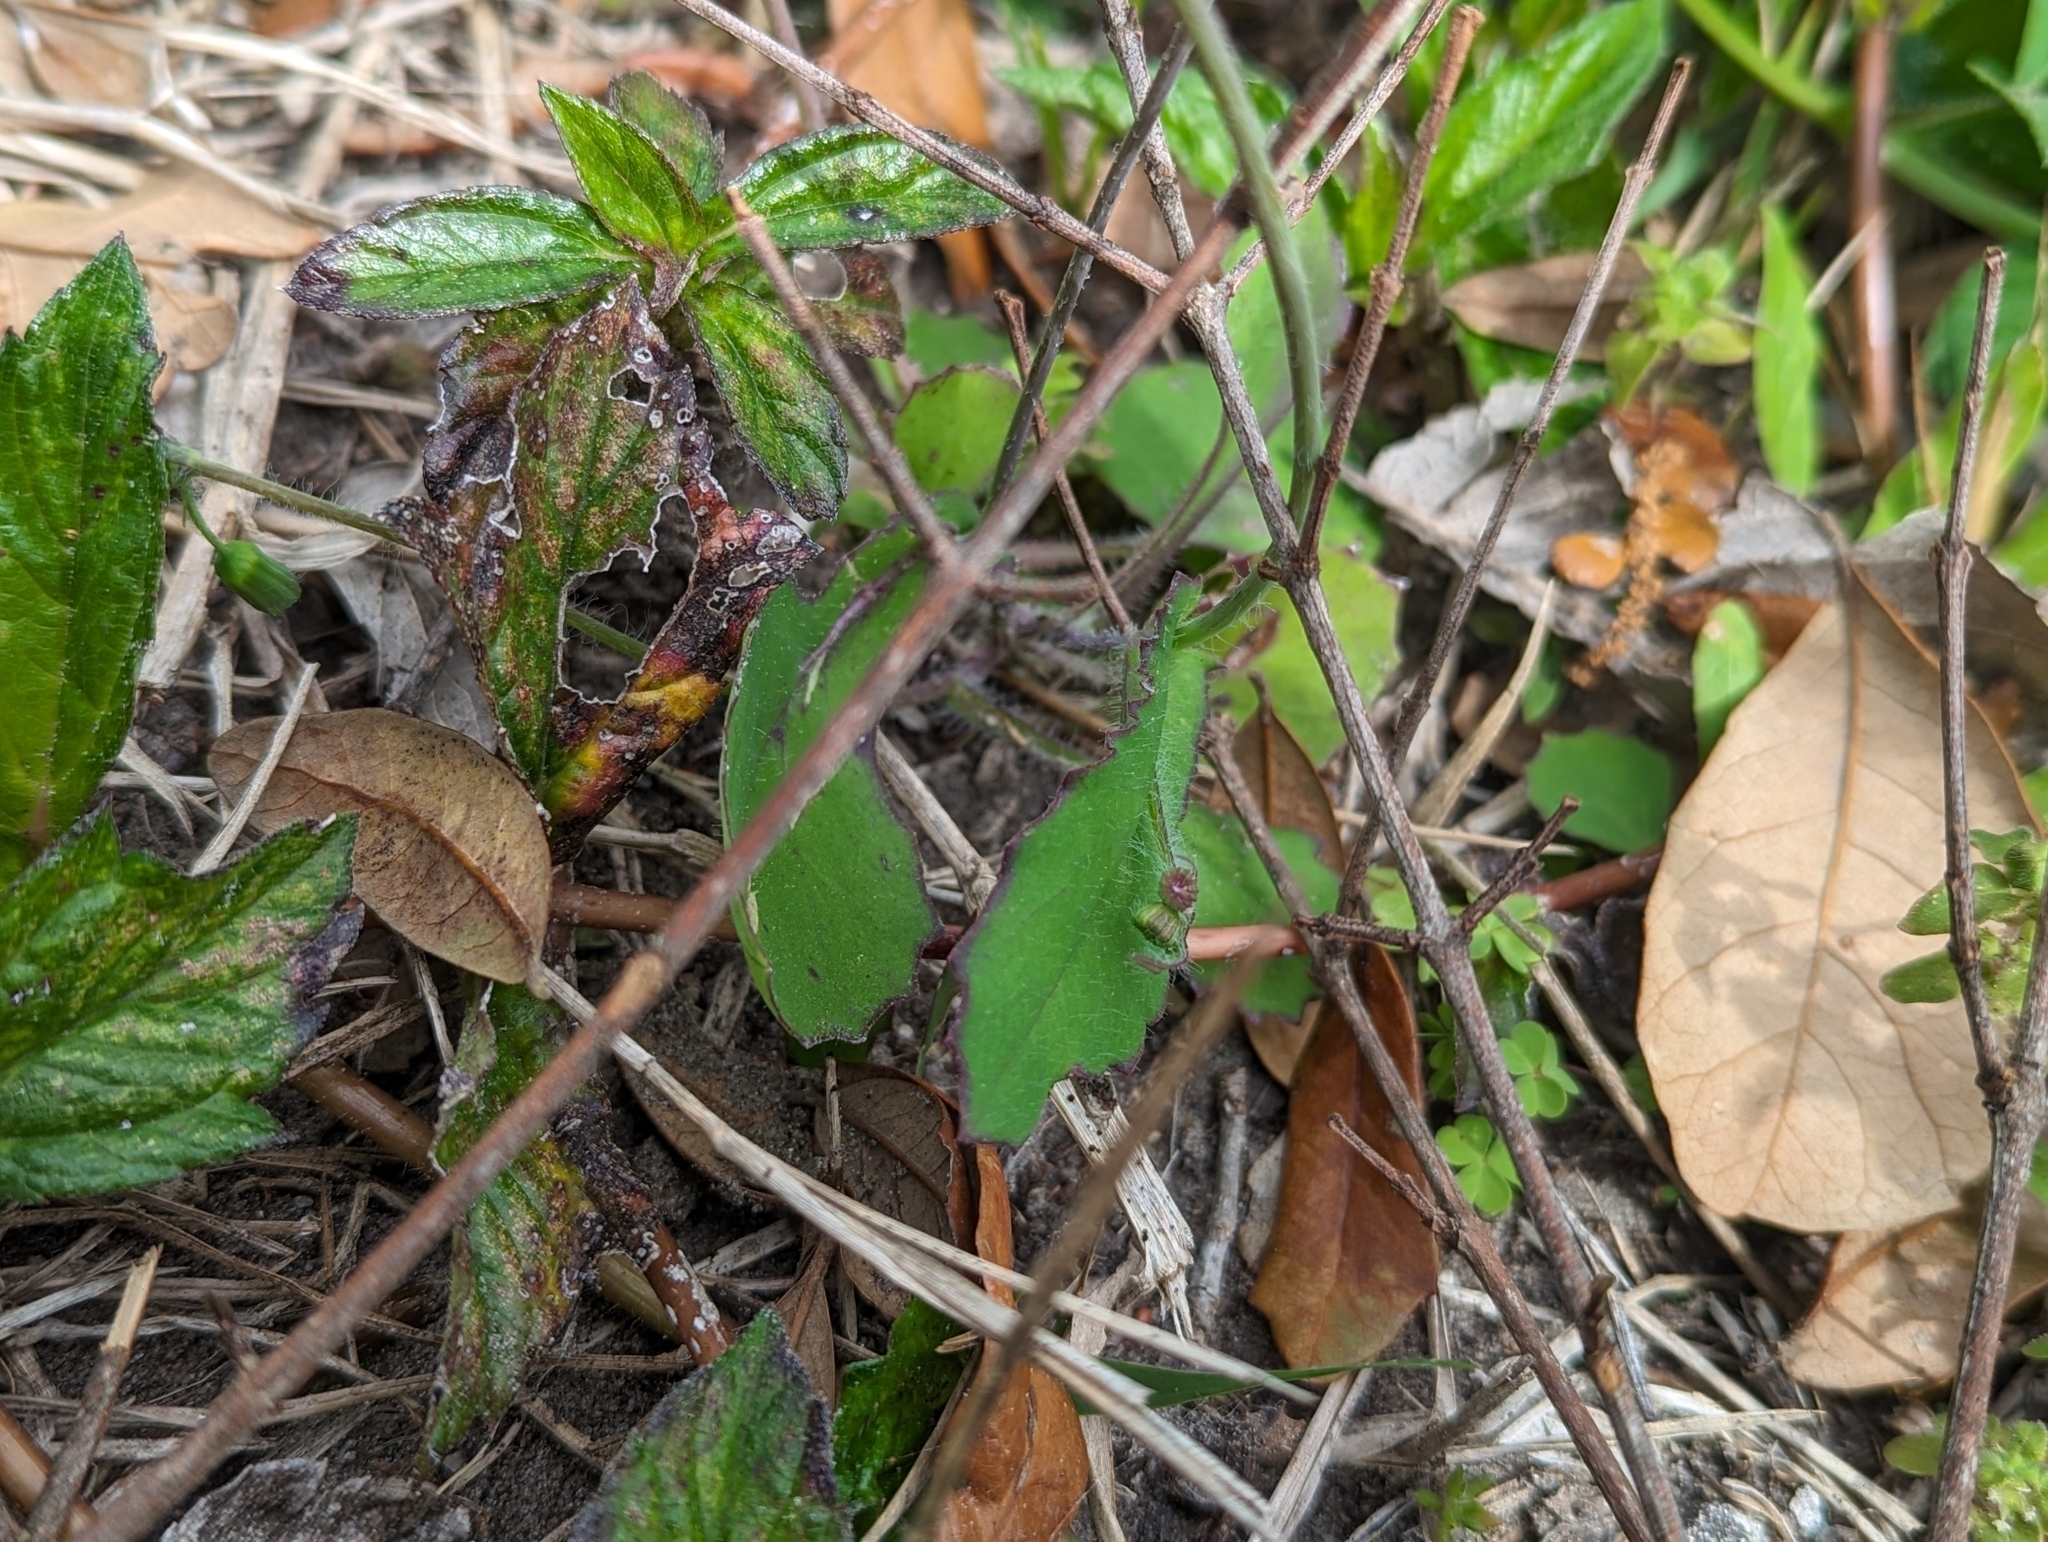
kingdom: Plantae
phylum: Tracheophyta
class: Magnoliopsida
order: Asterales
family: Asteraceae
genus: Emilia
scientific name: Emilia fosbergii
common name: Florida tasselflower
